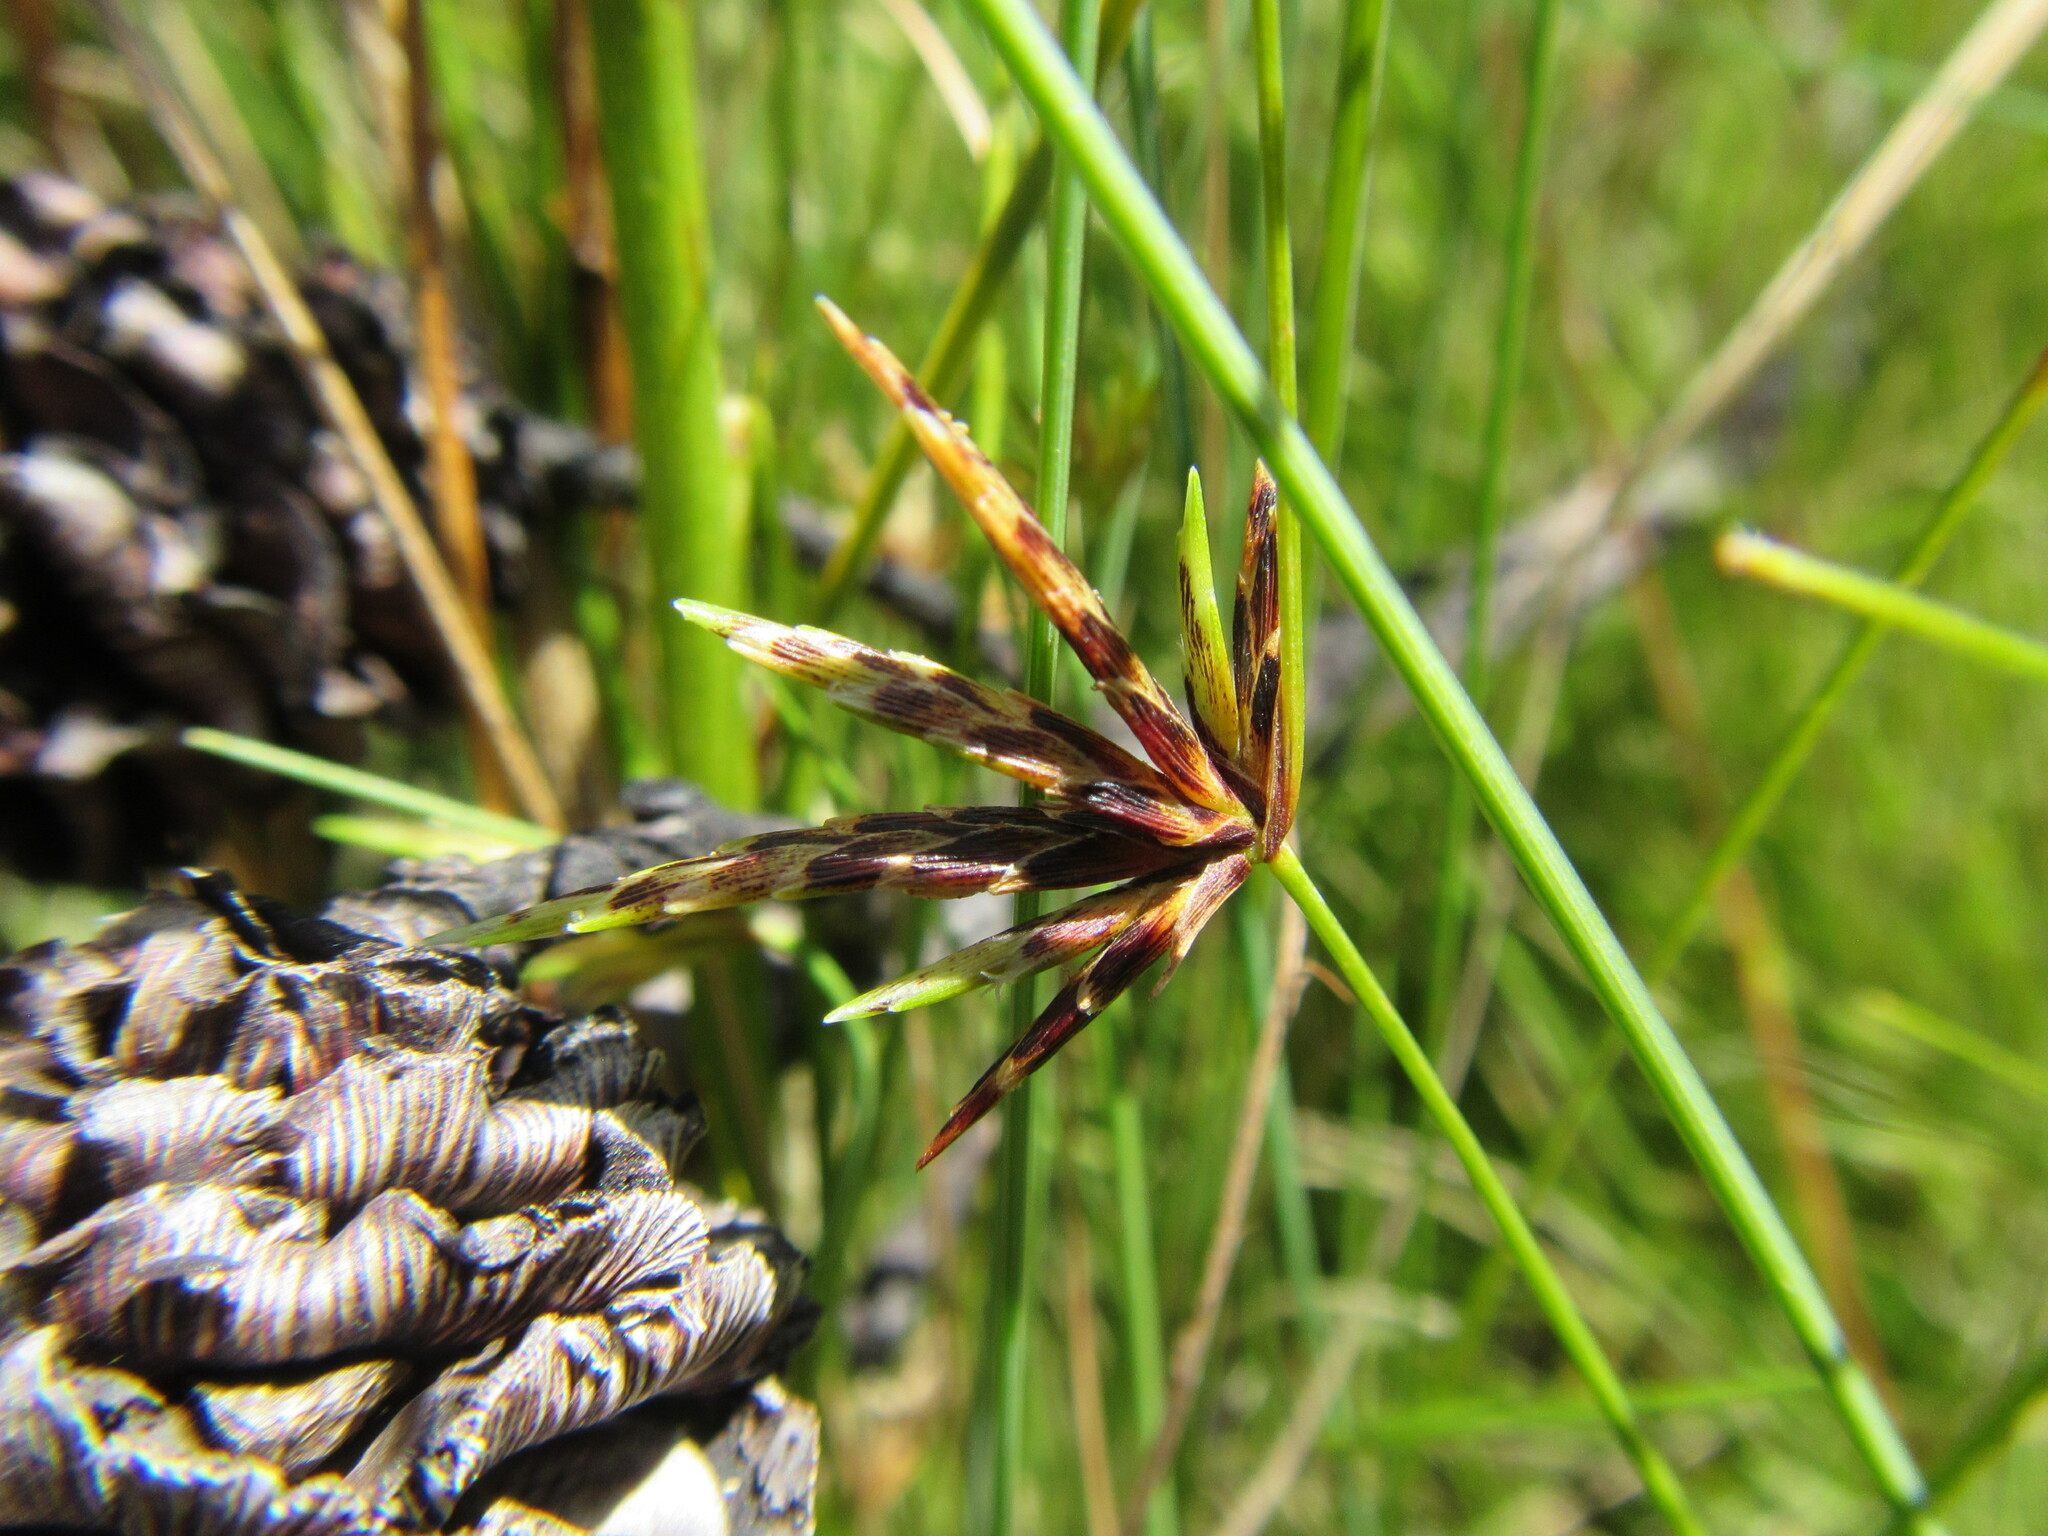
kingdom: Plantae
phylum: Tracheophyta
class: Liliopsida
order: Poales
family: Cyperaceae
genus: Ficinia
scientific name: Ficinia polystachya
